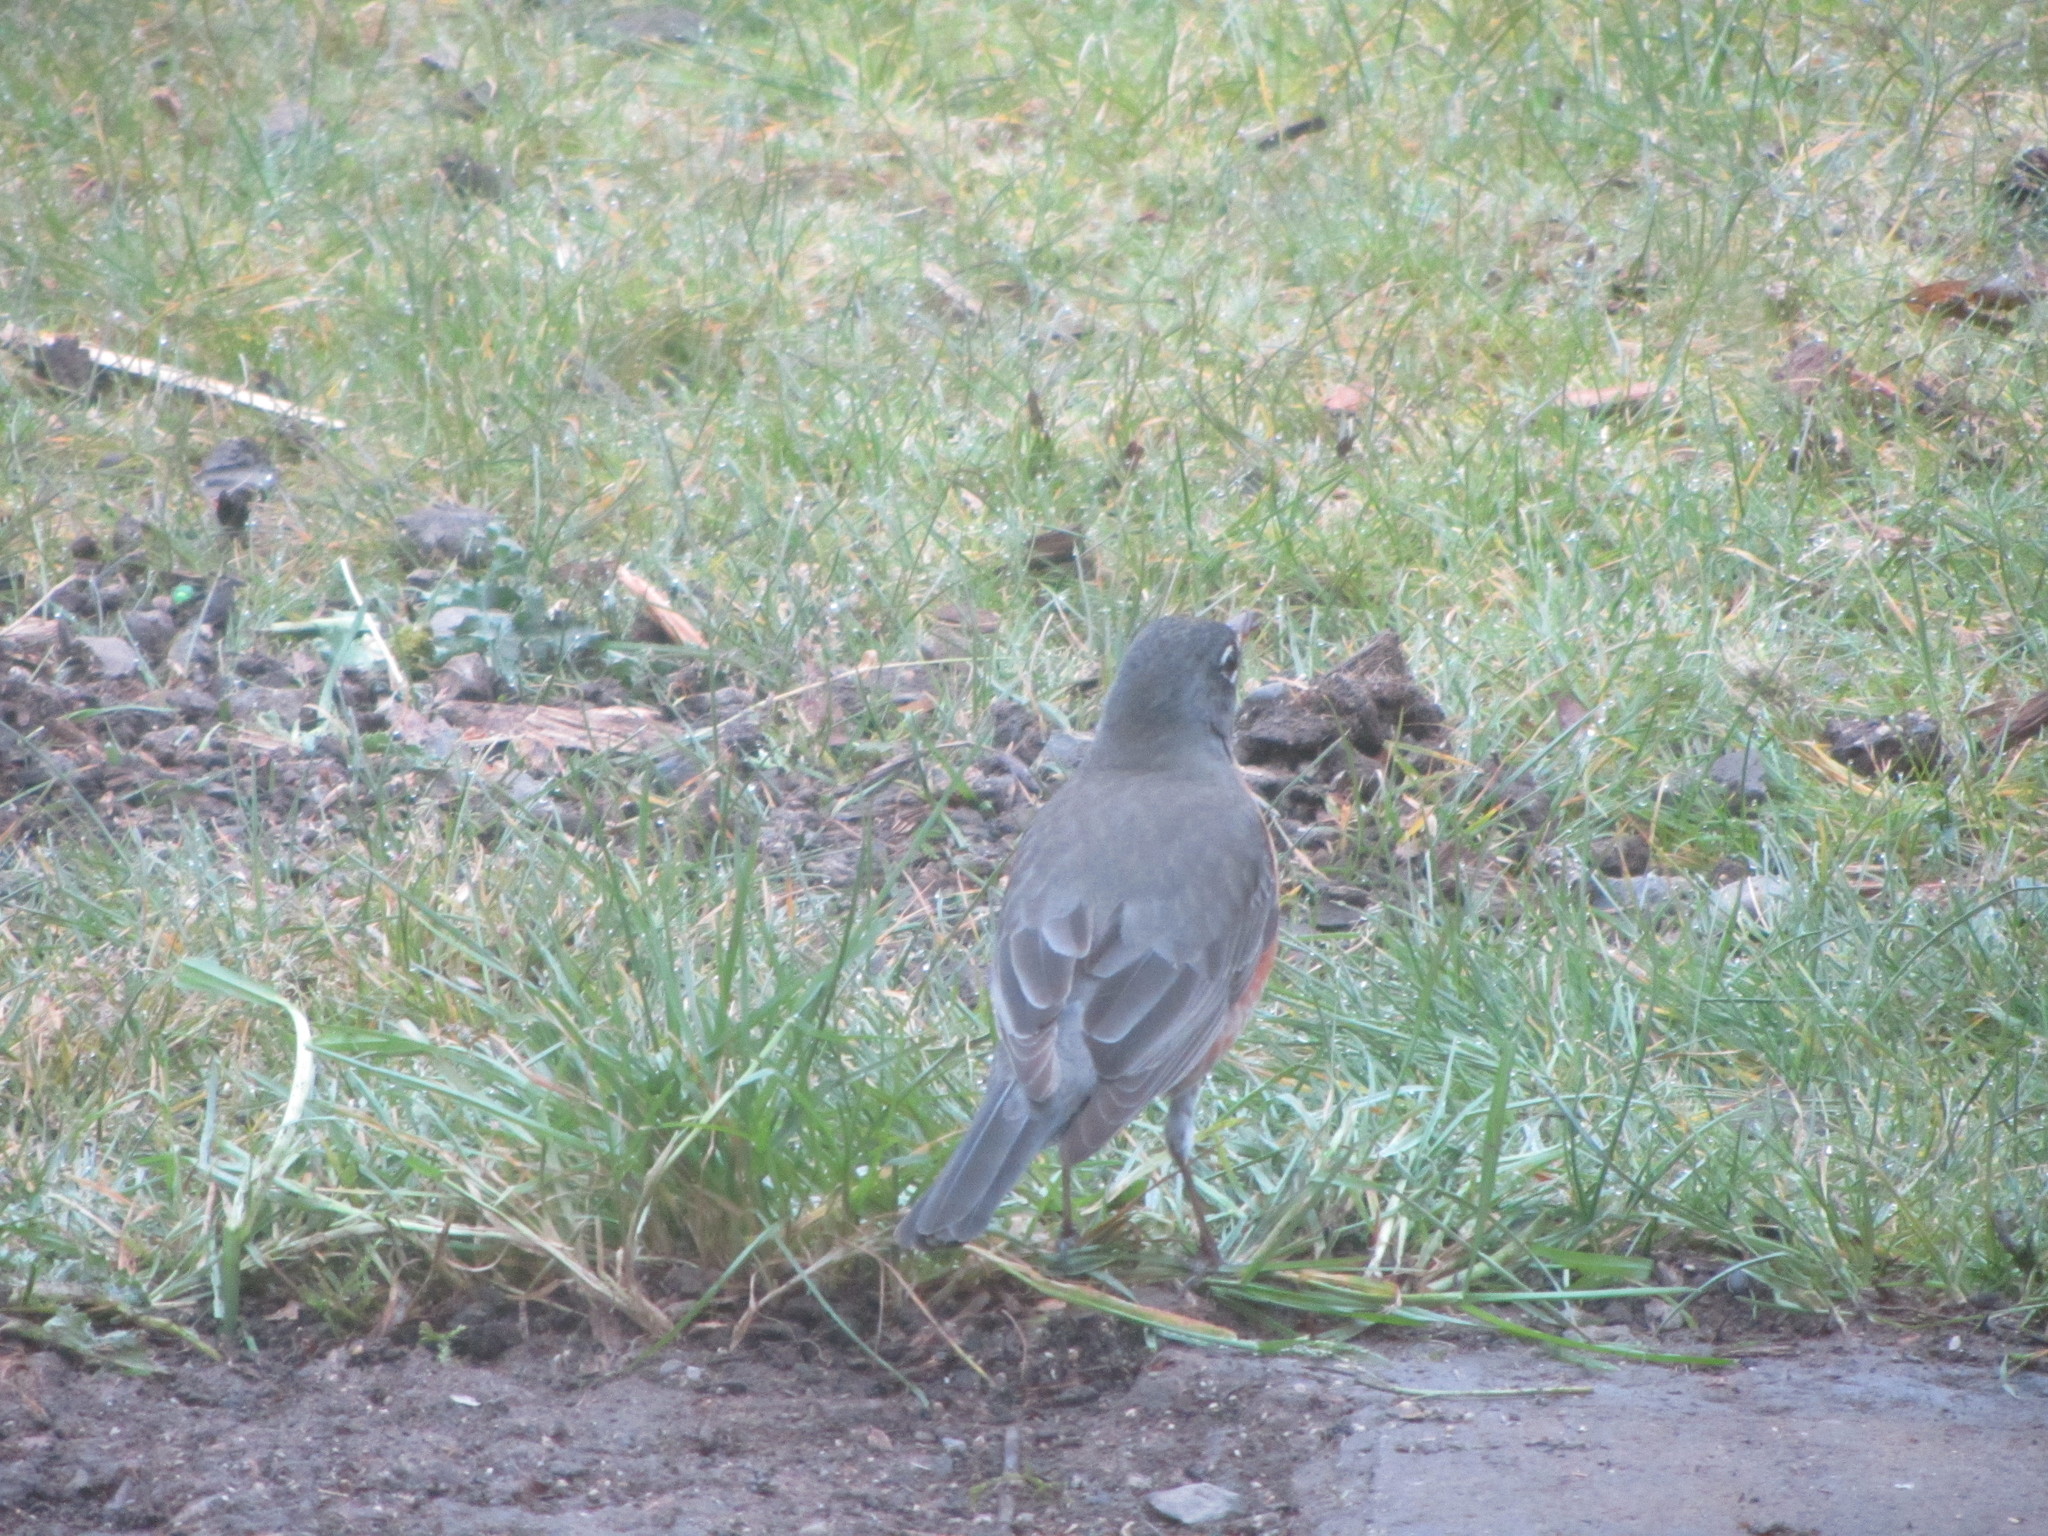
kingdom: Animalia
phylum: Chordata
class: Aves
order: Passeriformes
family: Turdidae
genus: Turdus
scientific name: Turdus migratorius
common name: American robin
